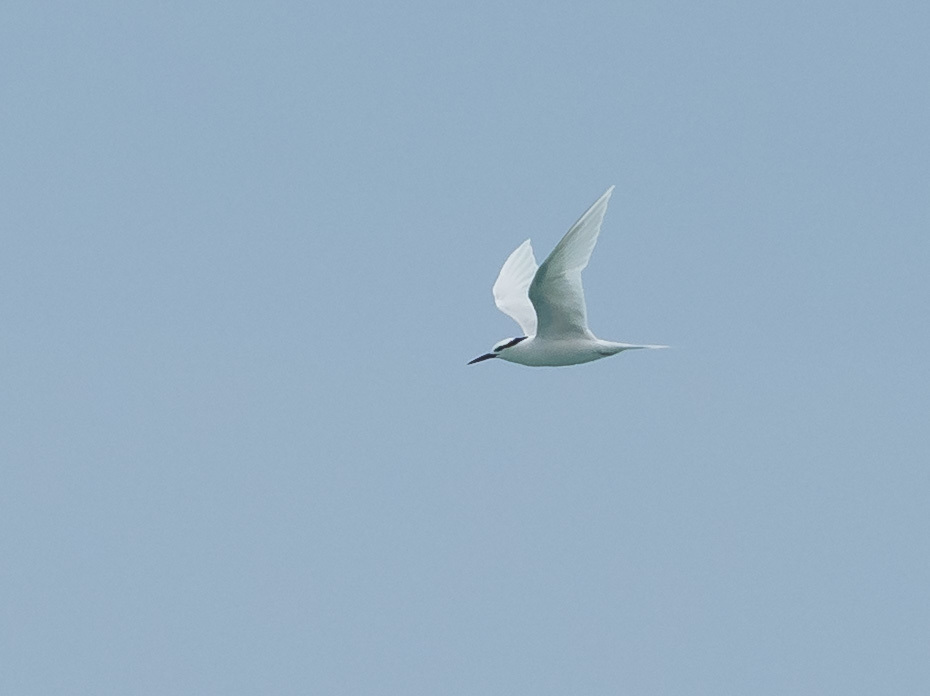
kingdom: Animalia
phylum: Chordata
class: Aves
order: Charadriiformes
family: Laridae
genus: Sterna
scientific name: Sterna sumatrana
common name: Black-naped tern
